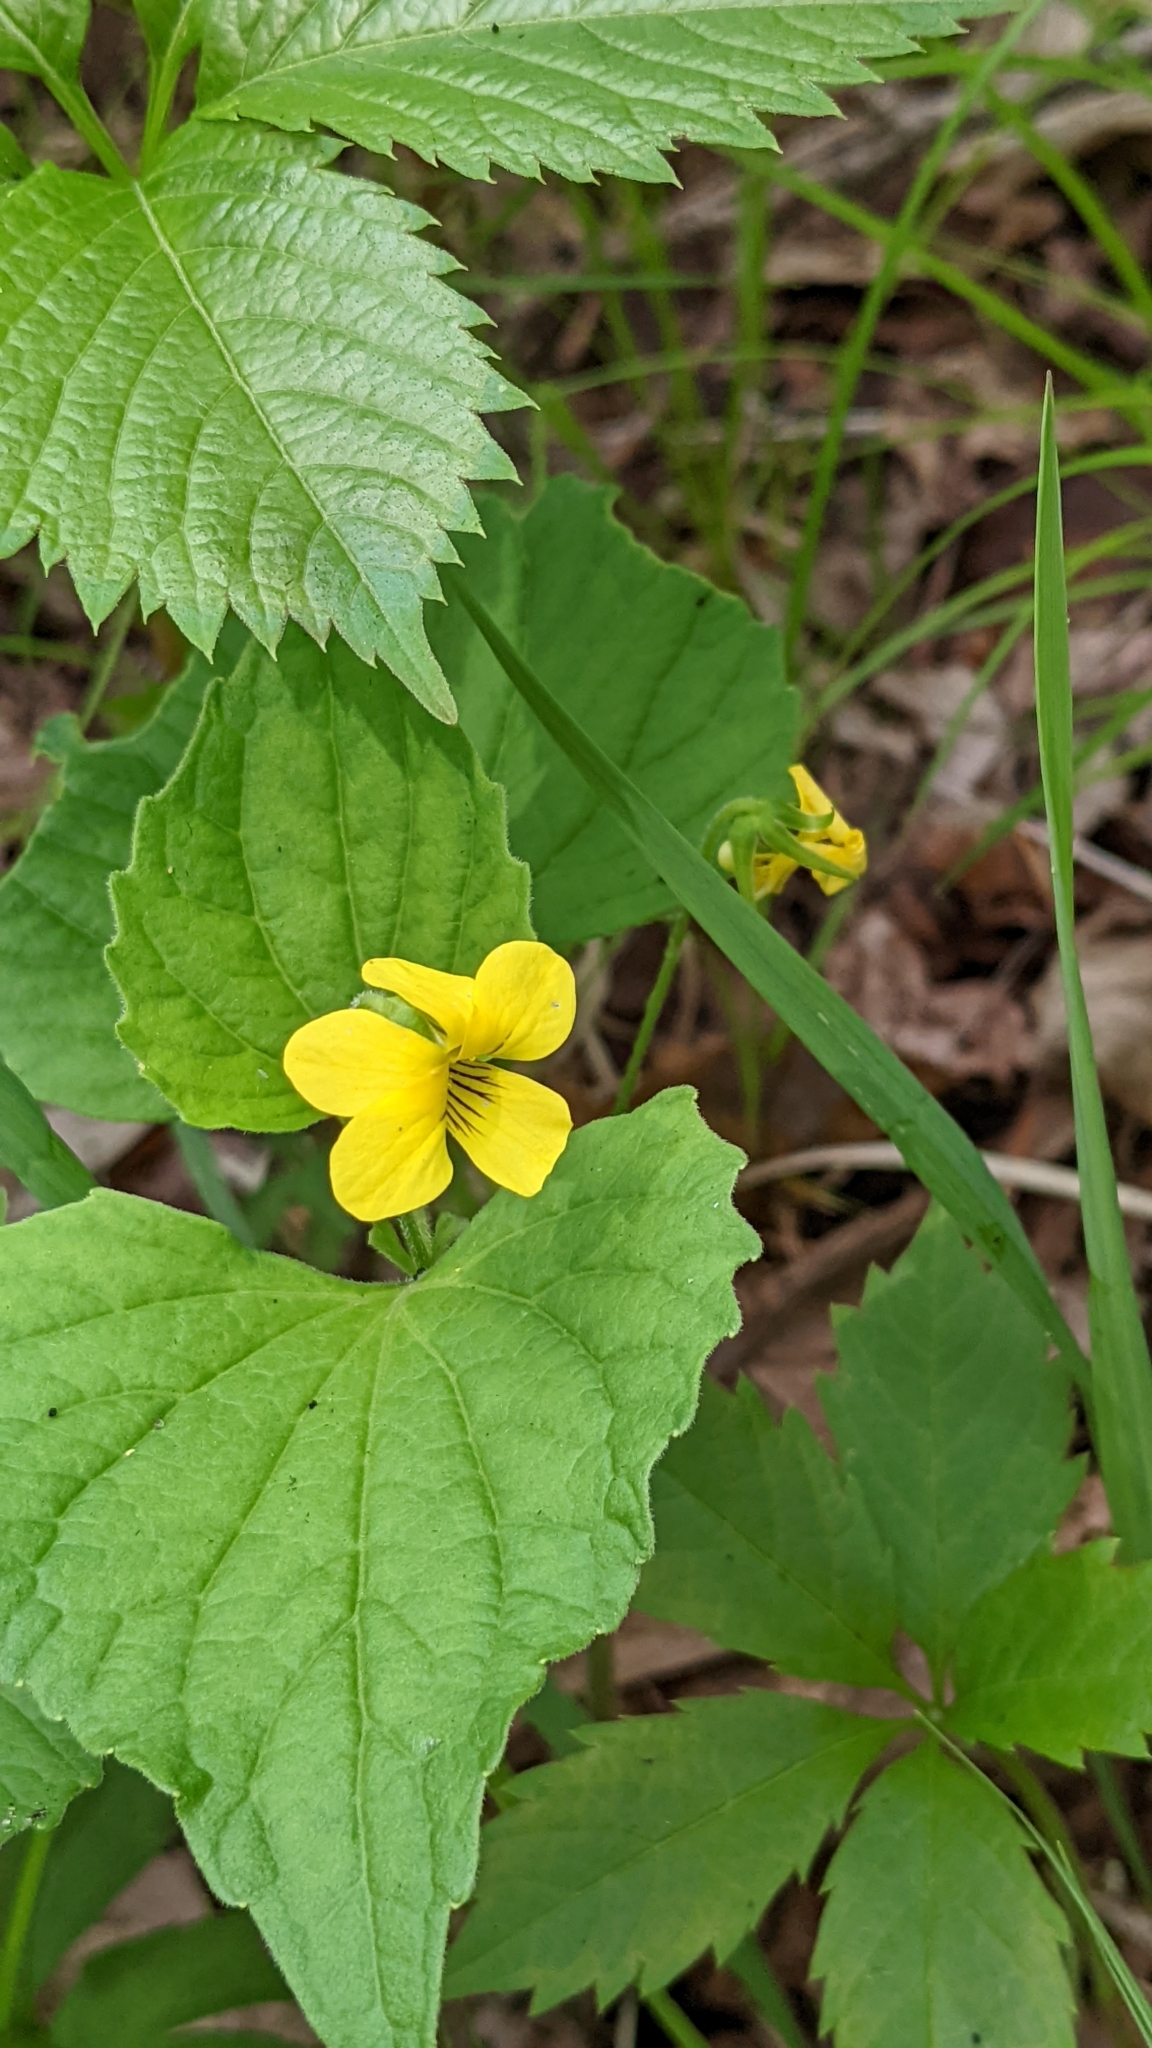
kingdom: Plantae
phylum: Tracheophyta
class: Magnoliopsida
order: Malpighiales
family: Violaceae
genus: Viola
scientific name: Viola eriocarpa
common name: Smooth yellow violet
